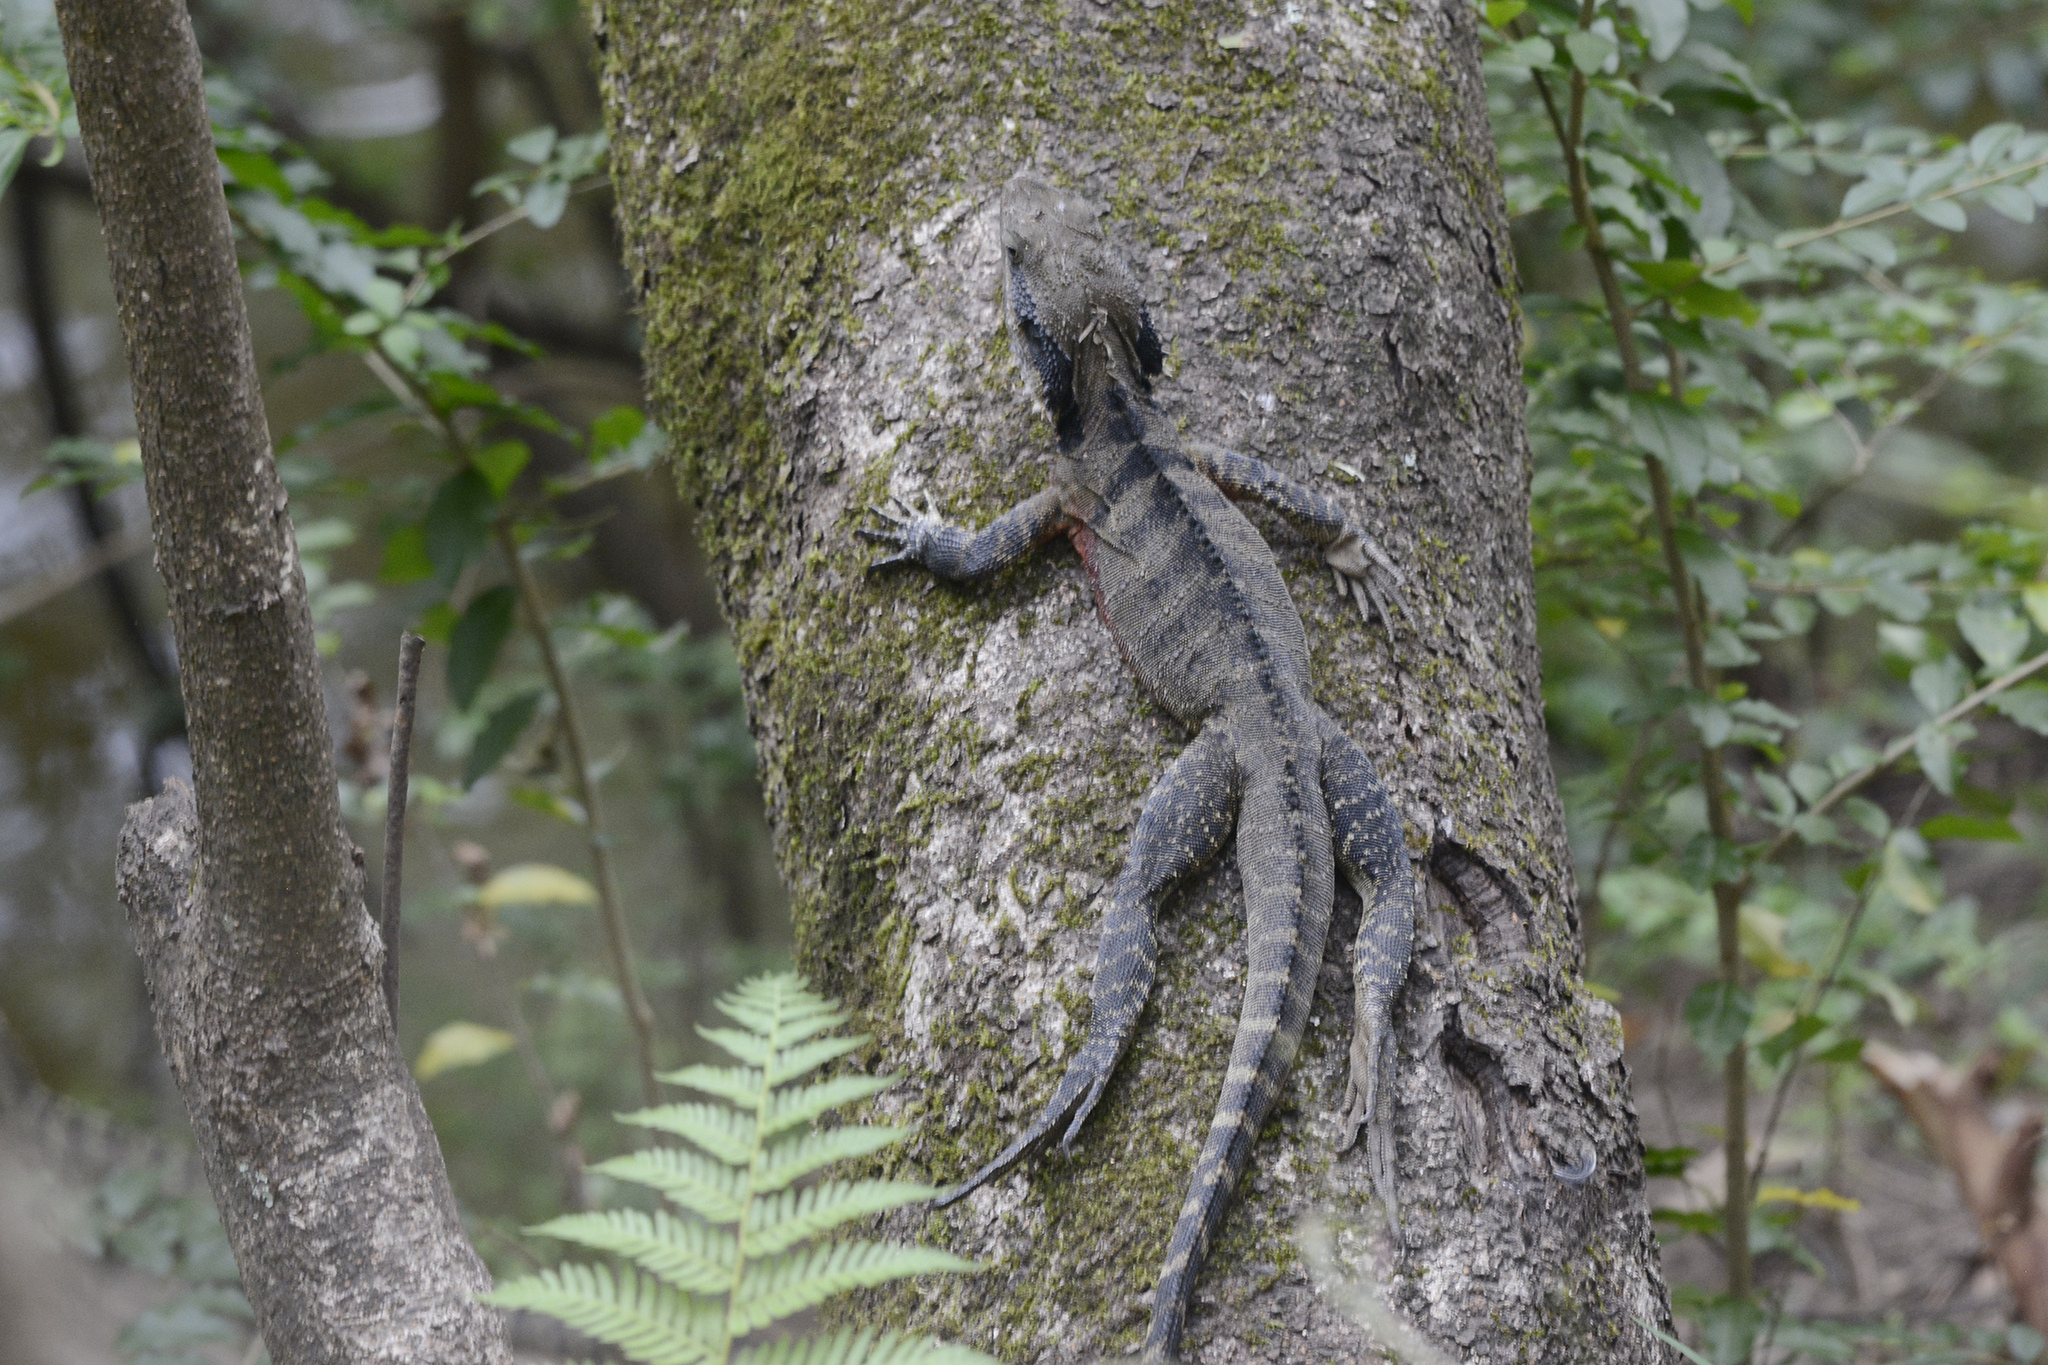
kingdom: Animalia
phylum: Chordata
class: Squamata
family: Agamidae
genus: Intellagama
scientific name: Intellagama lesueurii
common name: Eastern water dragon
